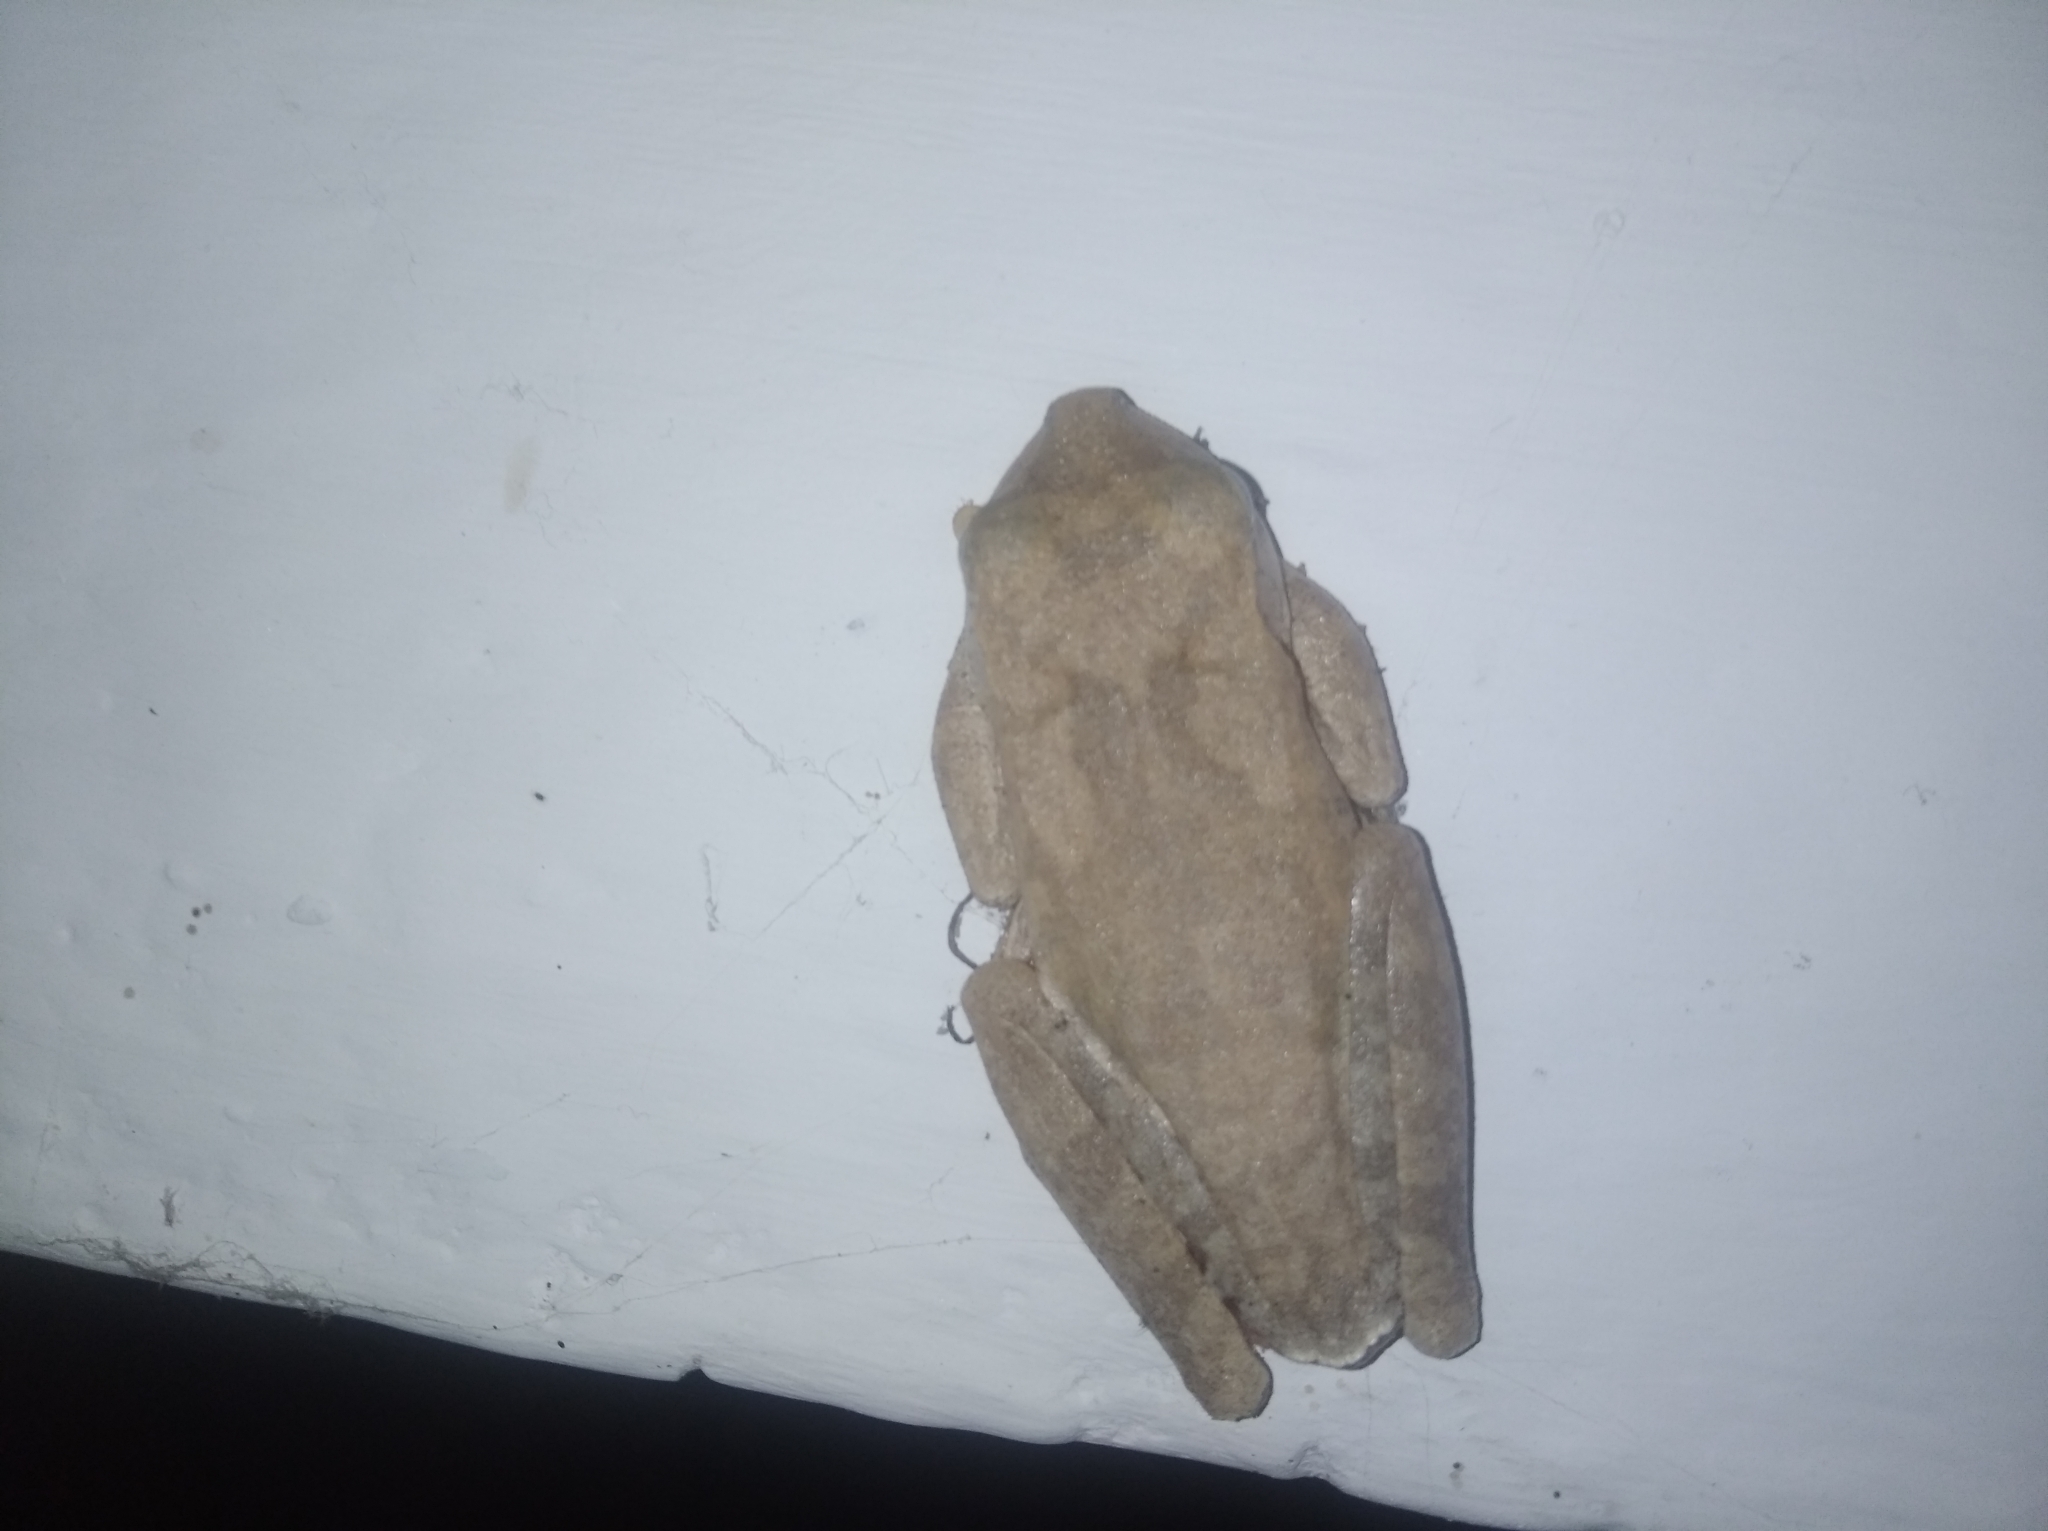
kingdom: Animalia
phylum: Chordata
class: Amphibia
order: Anura
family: Hylidae
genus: Boana
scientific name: Boana platanera
